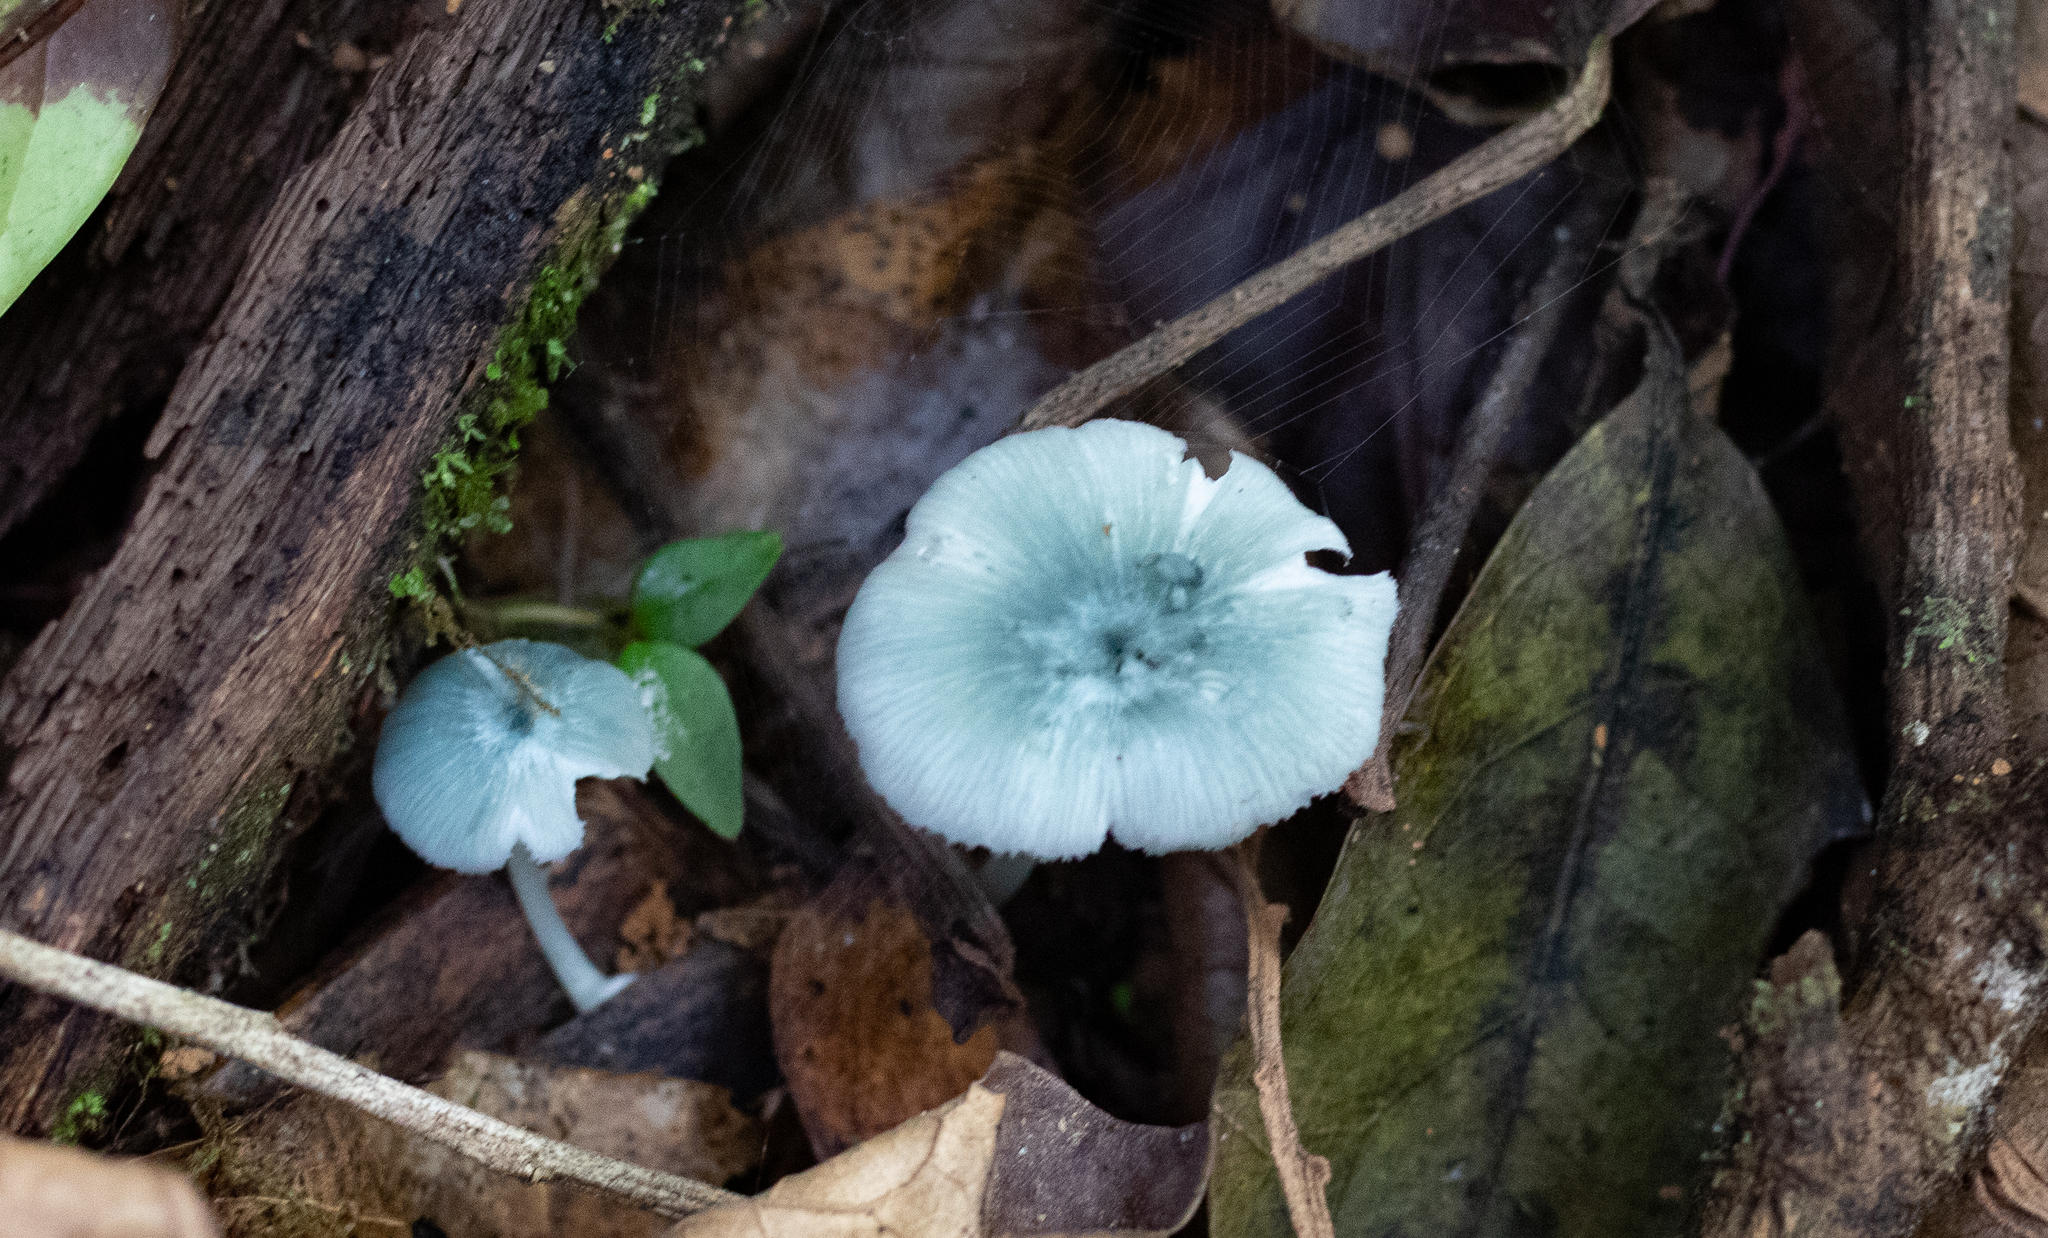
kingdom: Fungi
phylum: Basidiomycota
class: Agaricomycetes
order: Agaricales
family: Marasmiaceae
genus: Clitocybula
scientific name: Clitocybula azurea
